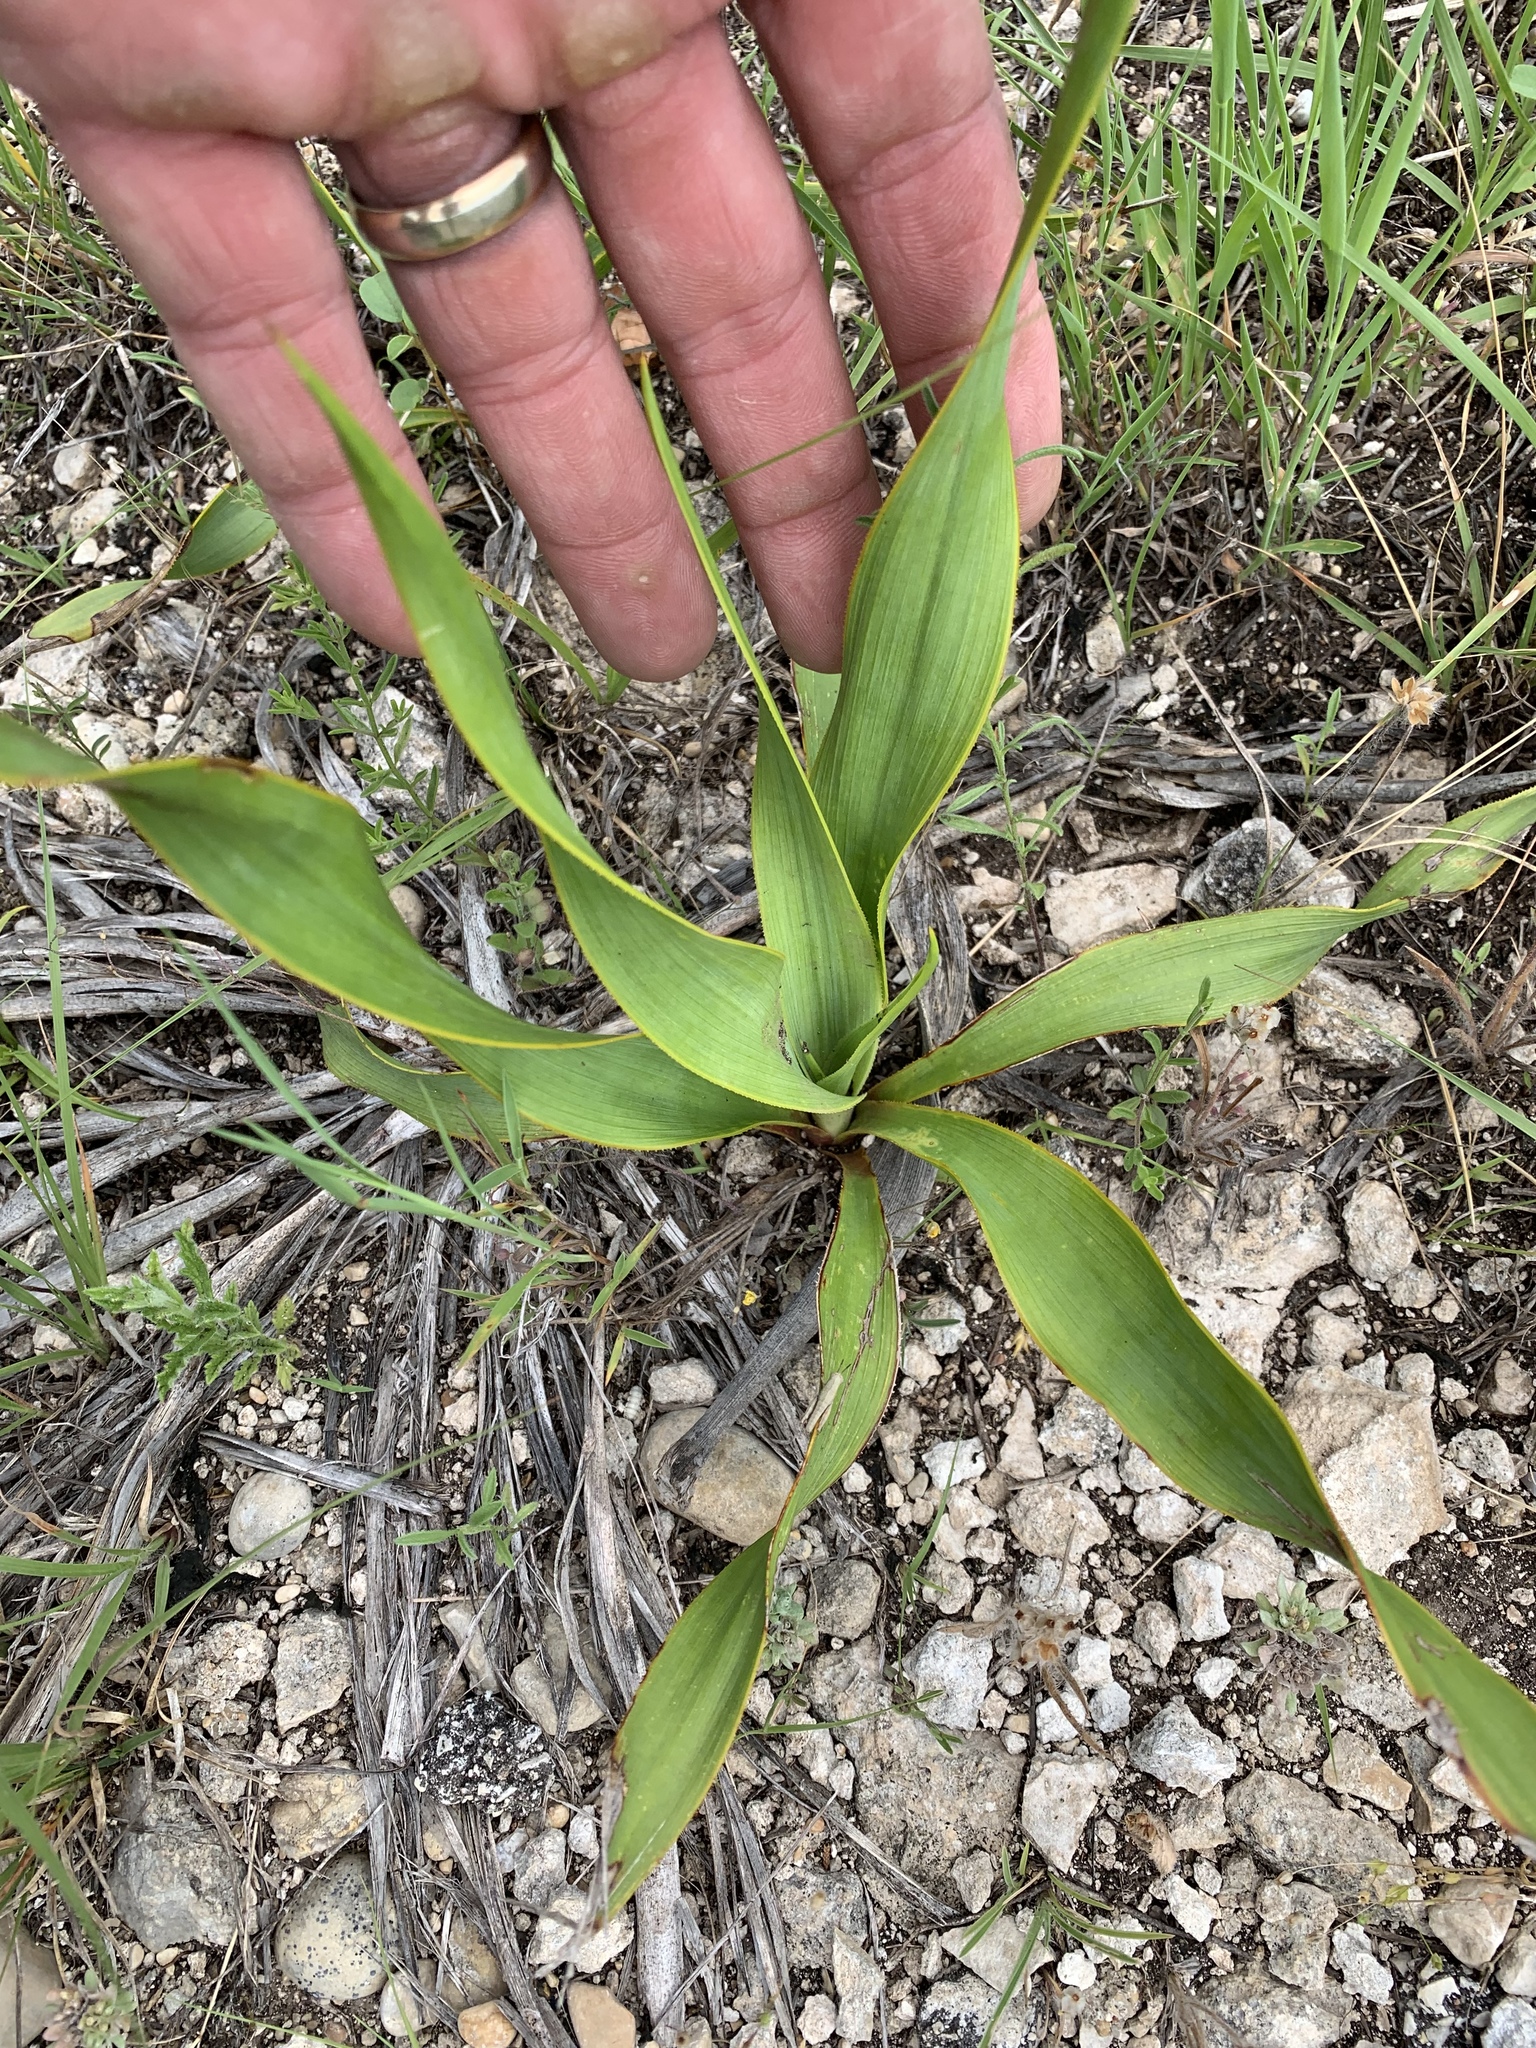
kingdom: Plantae
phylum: Tracheophyta
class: Liliopsida
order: Asparagales
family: Asparagaceae
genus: Yucca
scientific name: Yucca rupicola
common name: Twisted-leaf spanish-dagger
